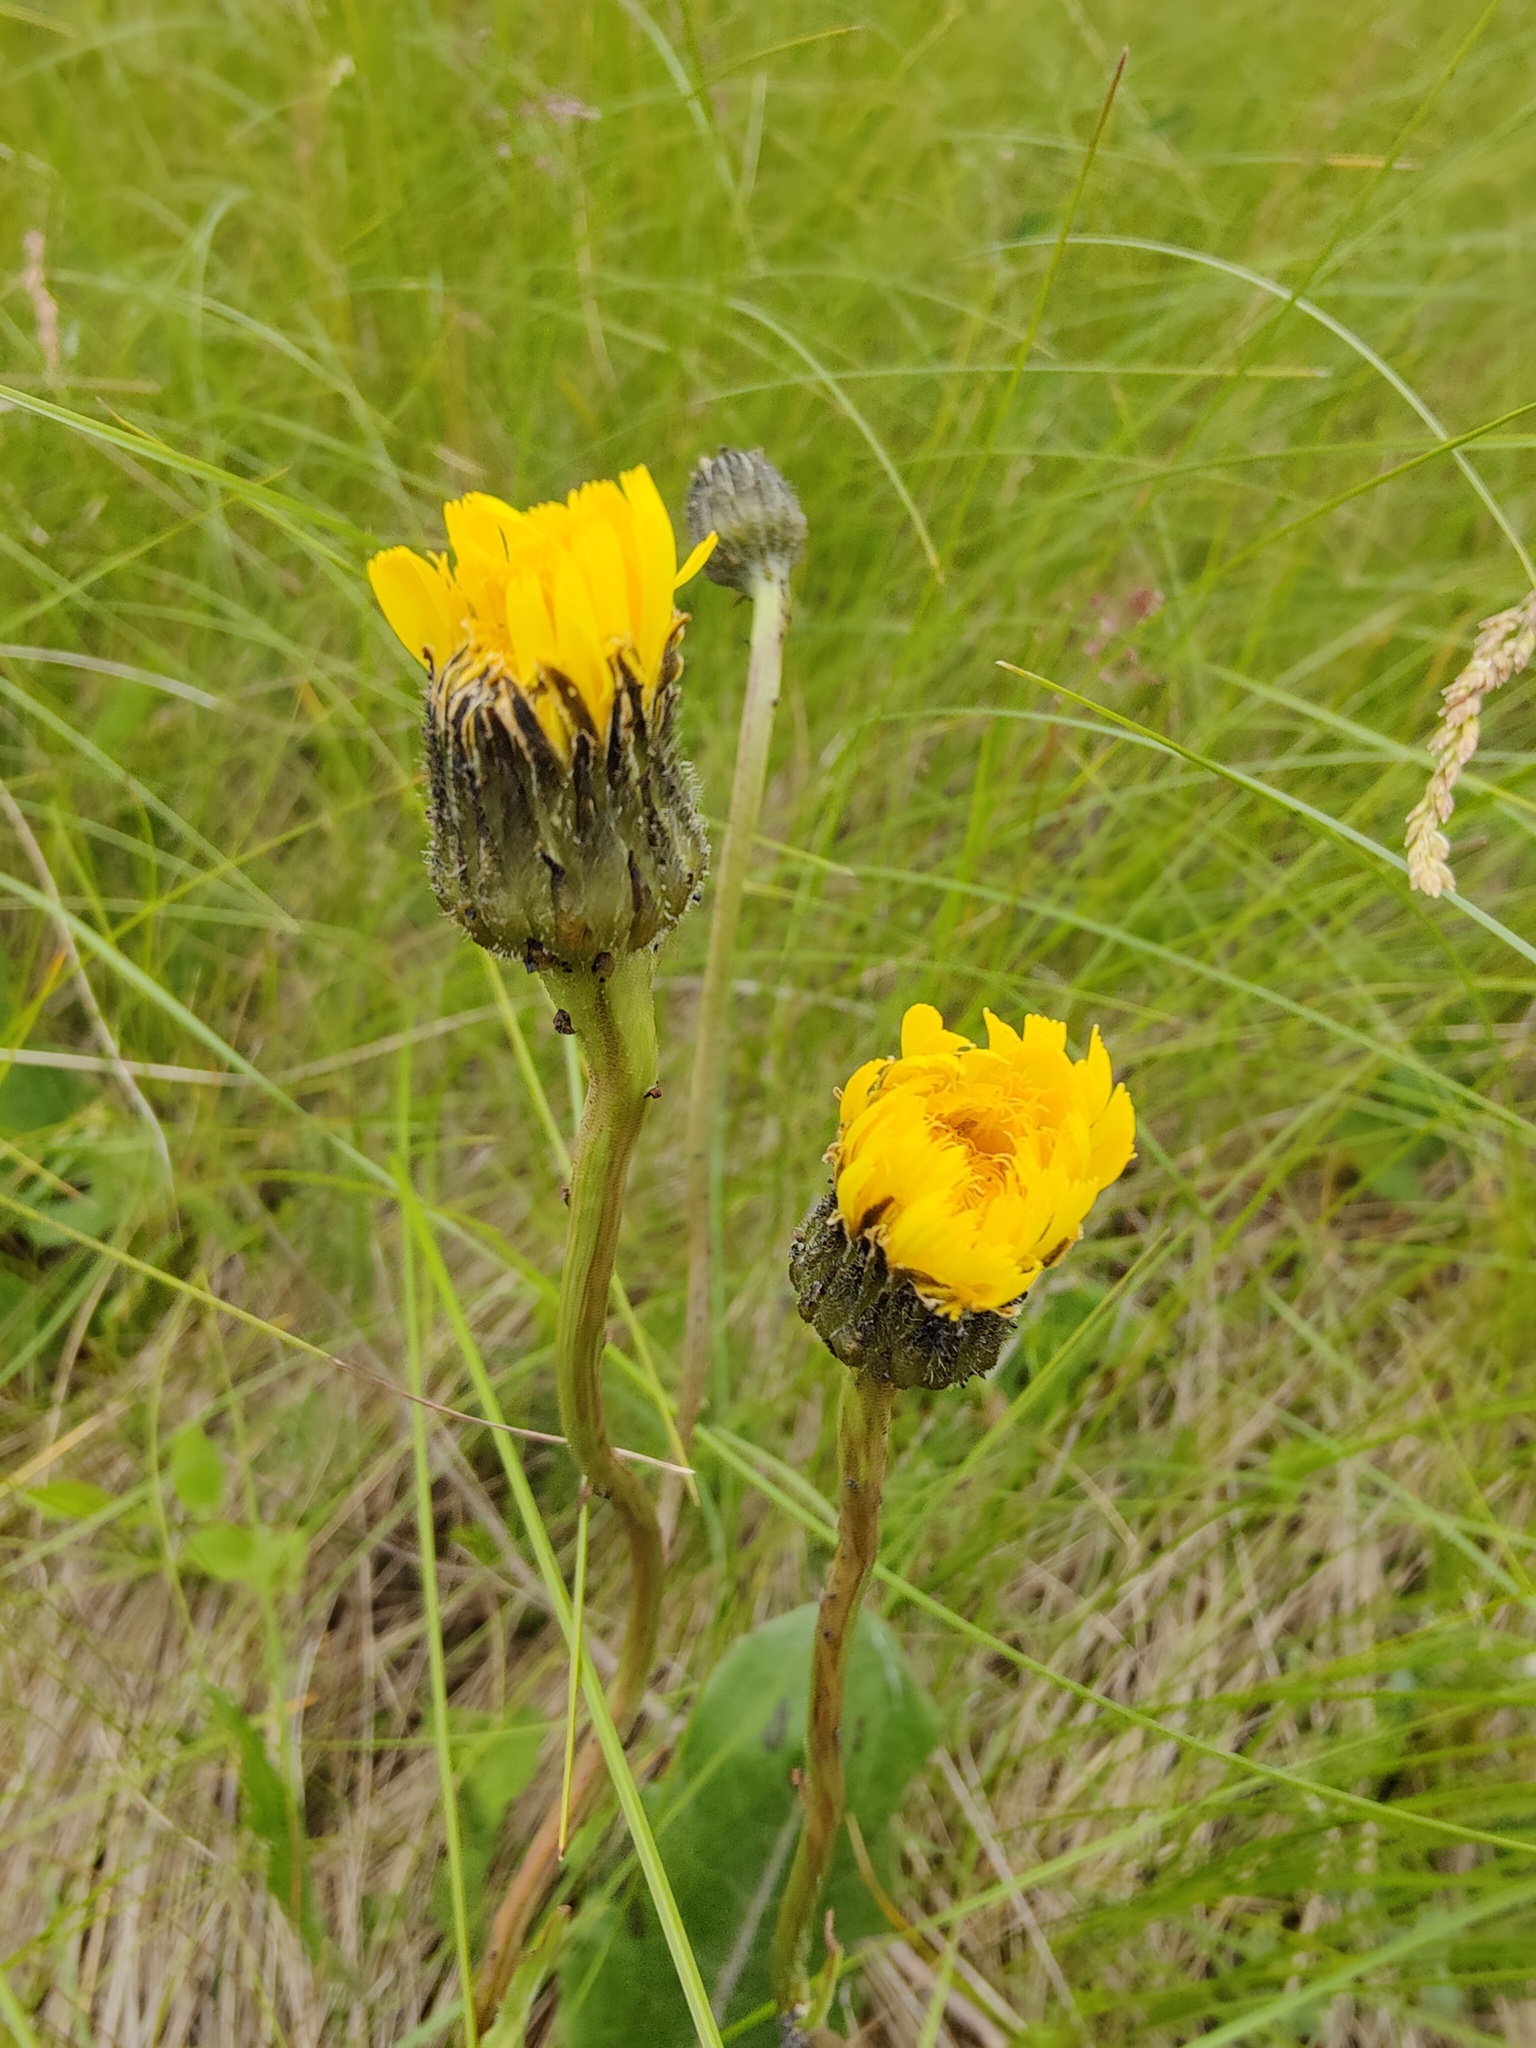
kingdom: Plantae
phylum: Tracheophyta
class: Magnoliopsida
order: Asterales
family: Asteraceae
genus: Trommsdorffia
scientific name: Trommsdorffia maculata
